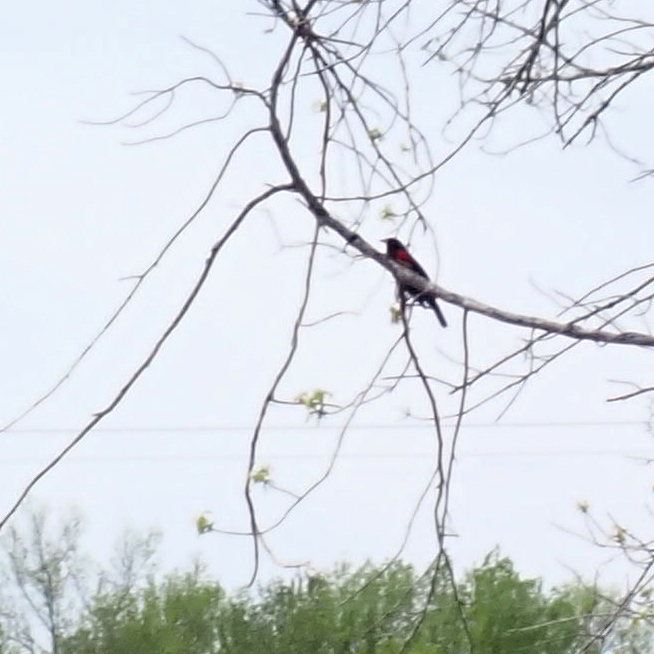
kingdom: Animalia
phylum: Chordata
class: Aves
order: Passeriformes
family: Icteridae
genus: Agelaius
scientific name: Agelaius phoeniceus
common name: Red-winged blackbird
